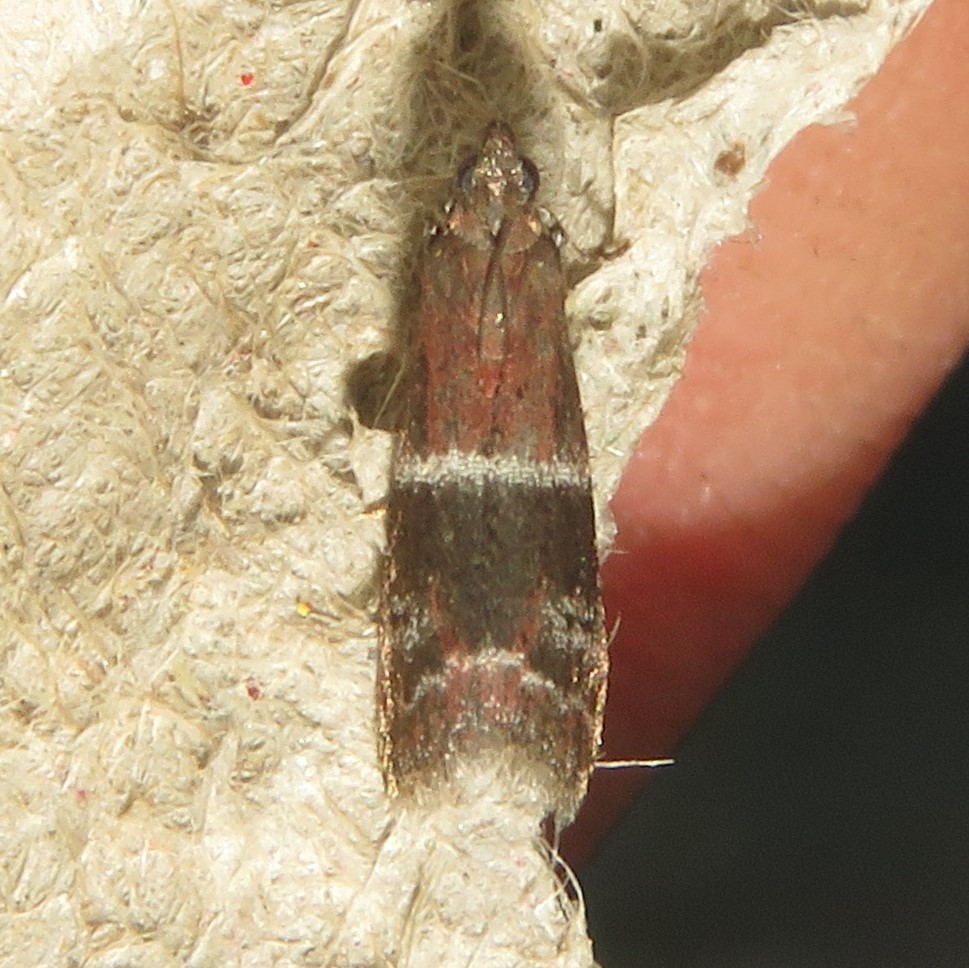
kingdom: Animalia
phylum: Arthropoda
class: Insecta
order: Lepidoptera
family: Pyralidae
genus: Moodna
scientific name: Moodna ostrinella
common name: Darker moodna moth
